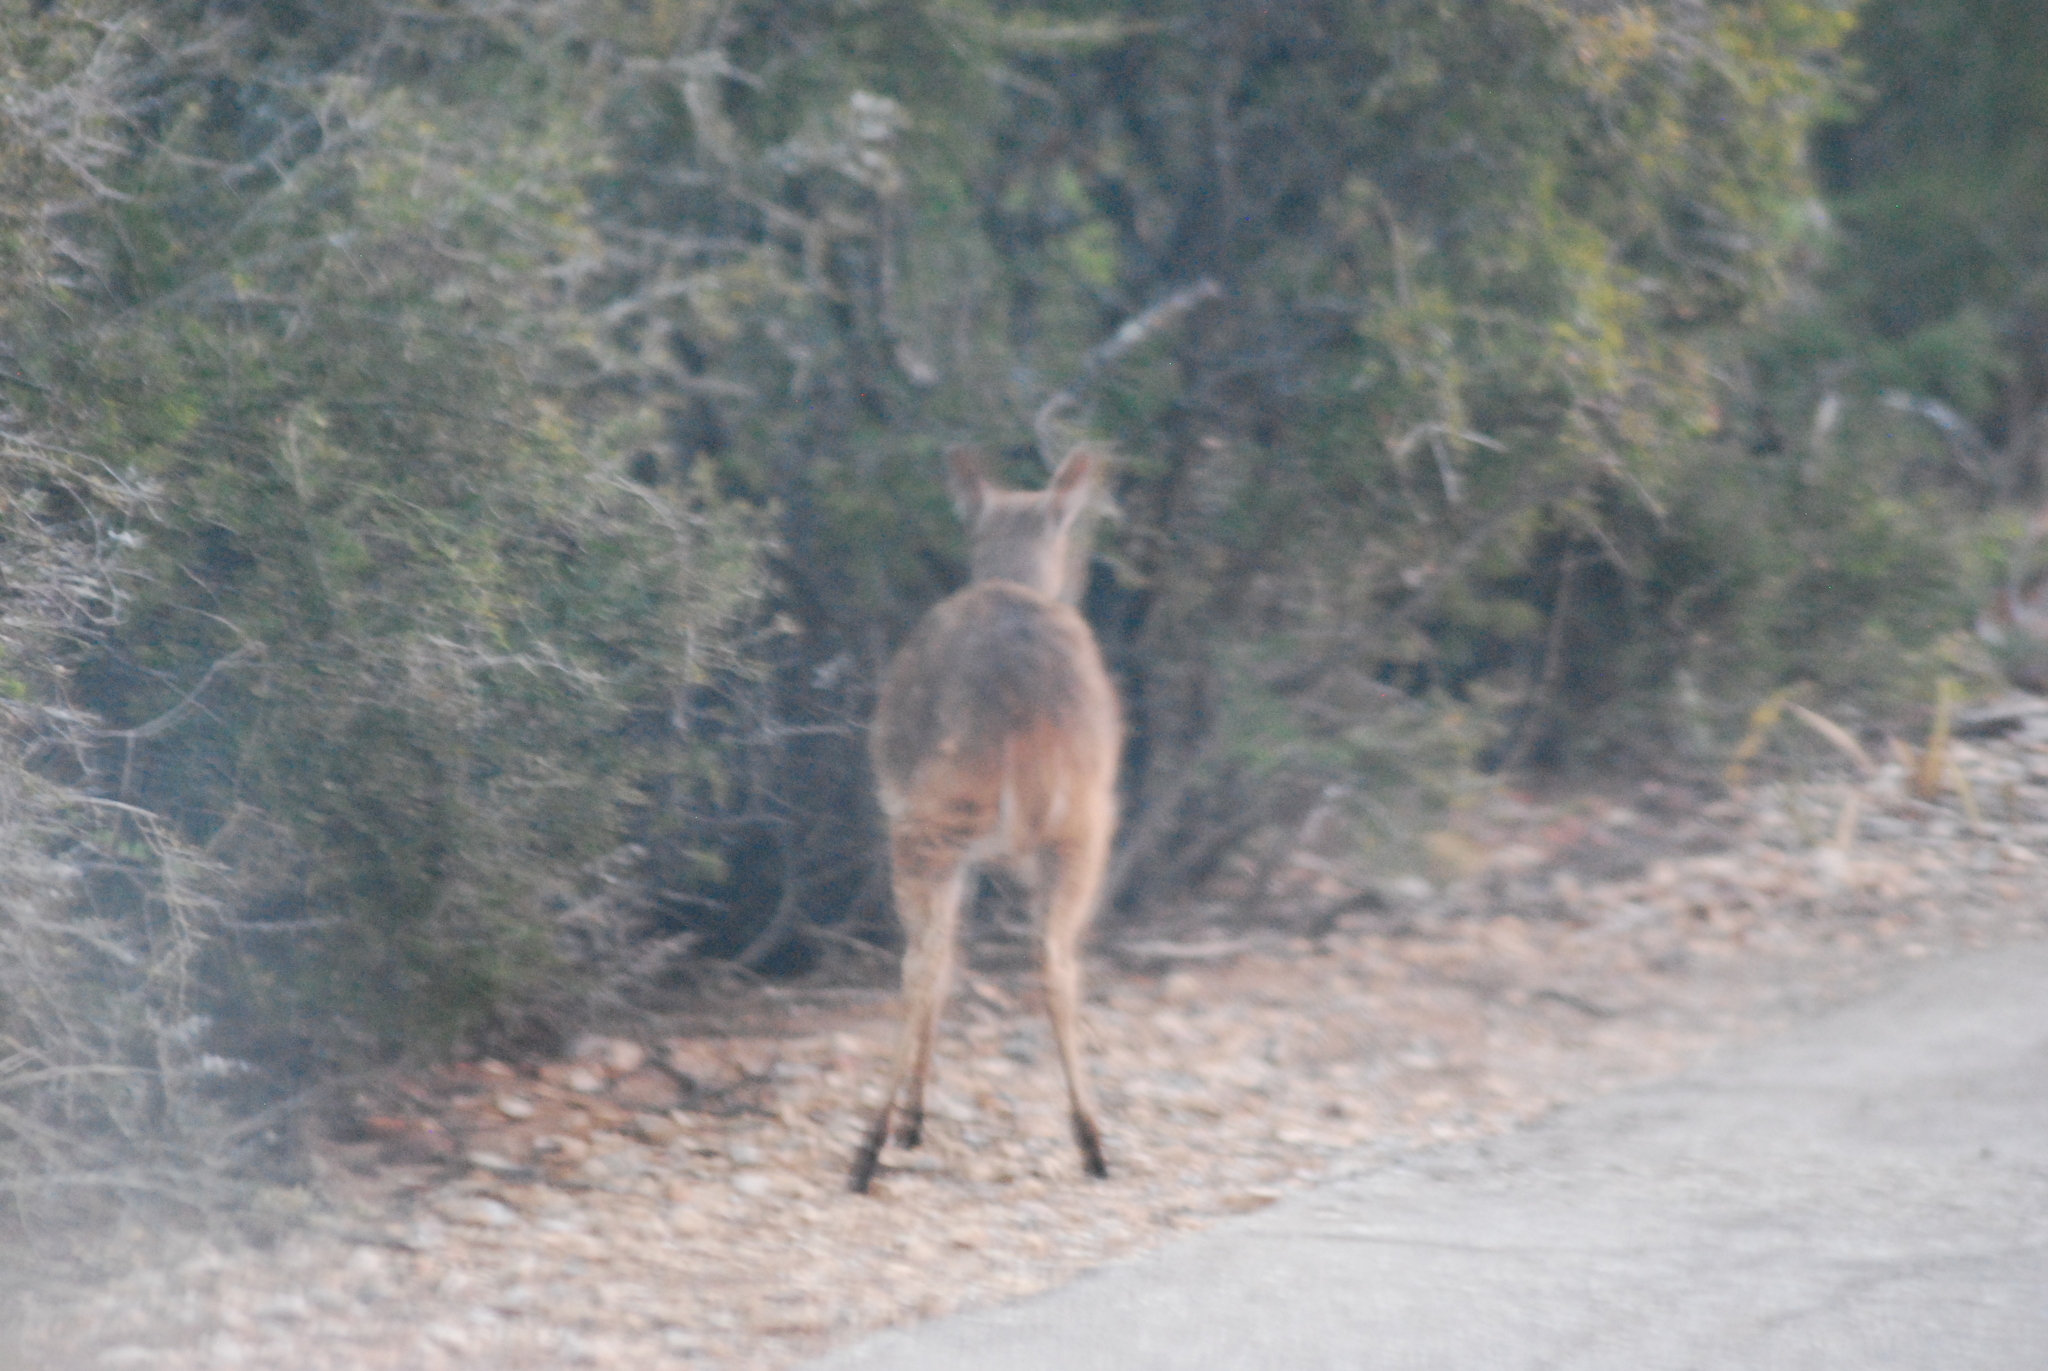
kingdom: Animalia
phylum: Chordata
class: Mammalia
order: Artiodactyla
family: Bovidae
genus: Sylvicapra
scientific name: Sylvicapra grimmia
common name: Bush duiker
